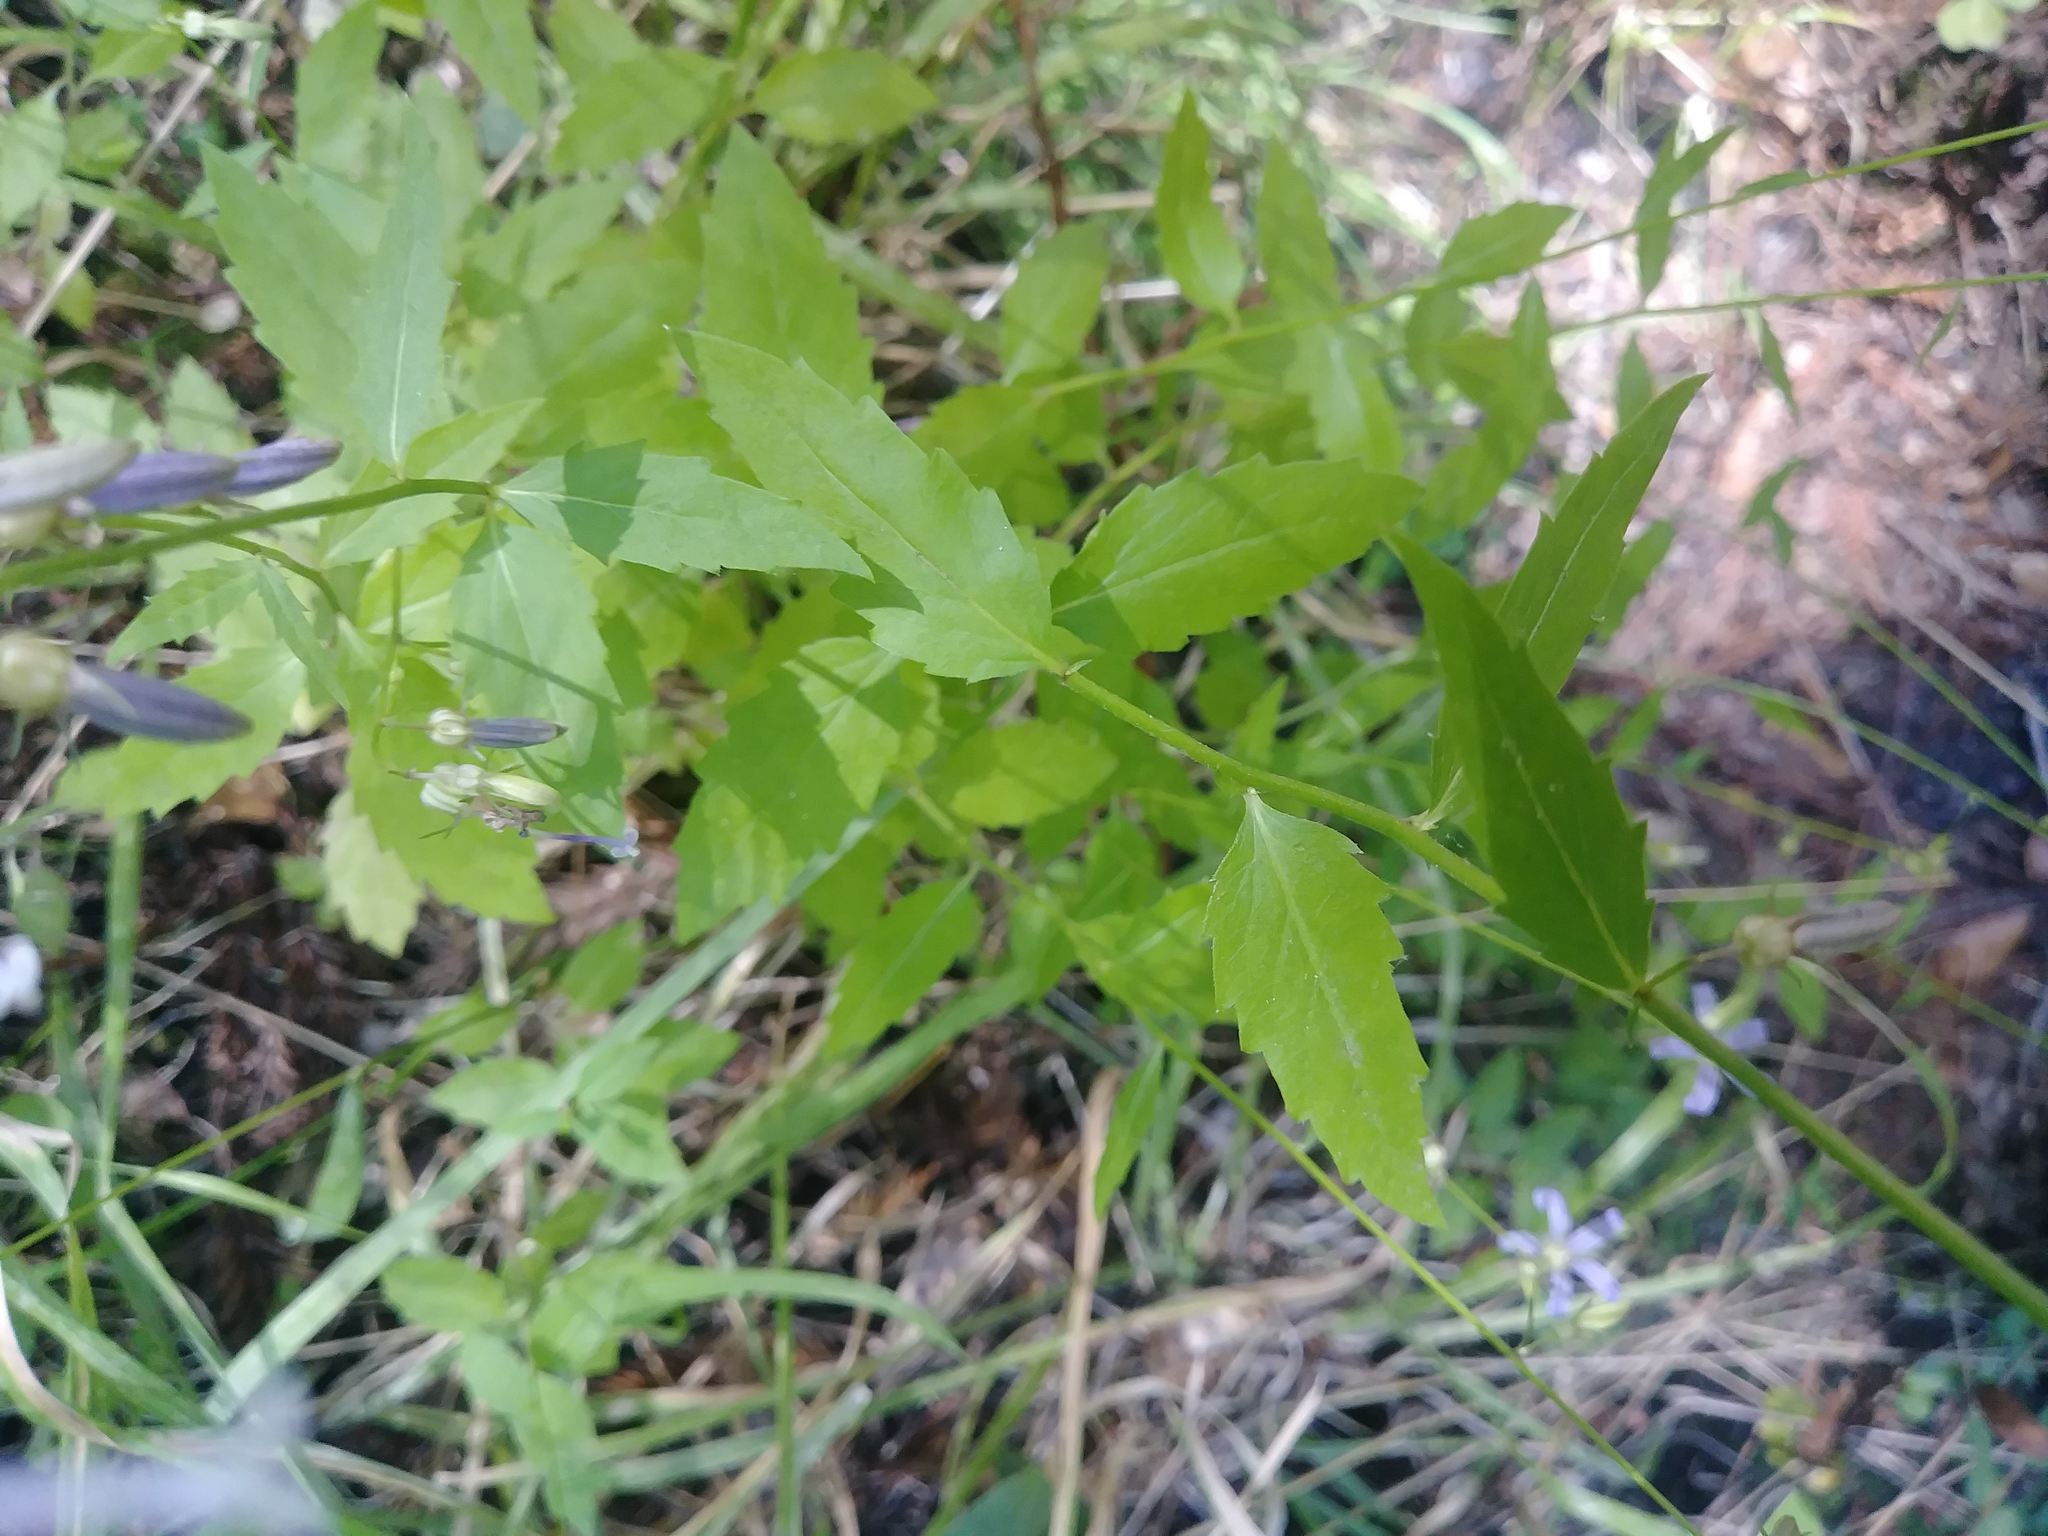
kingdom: Plantae
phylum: Tracheophyta
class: Magnoliopsida
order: Asterales
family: Campanulaceae
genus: Smithiastrum
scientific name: Smithiastrum prenanthoides
